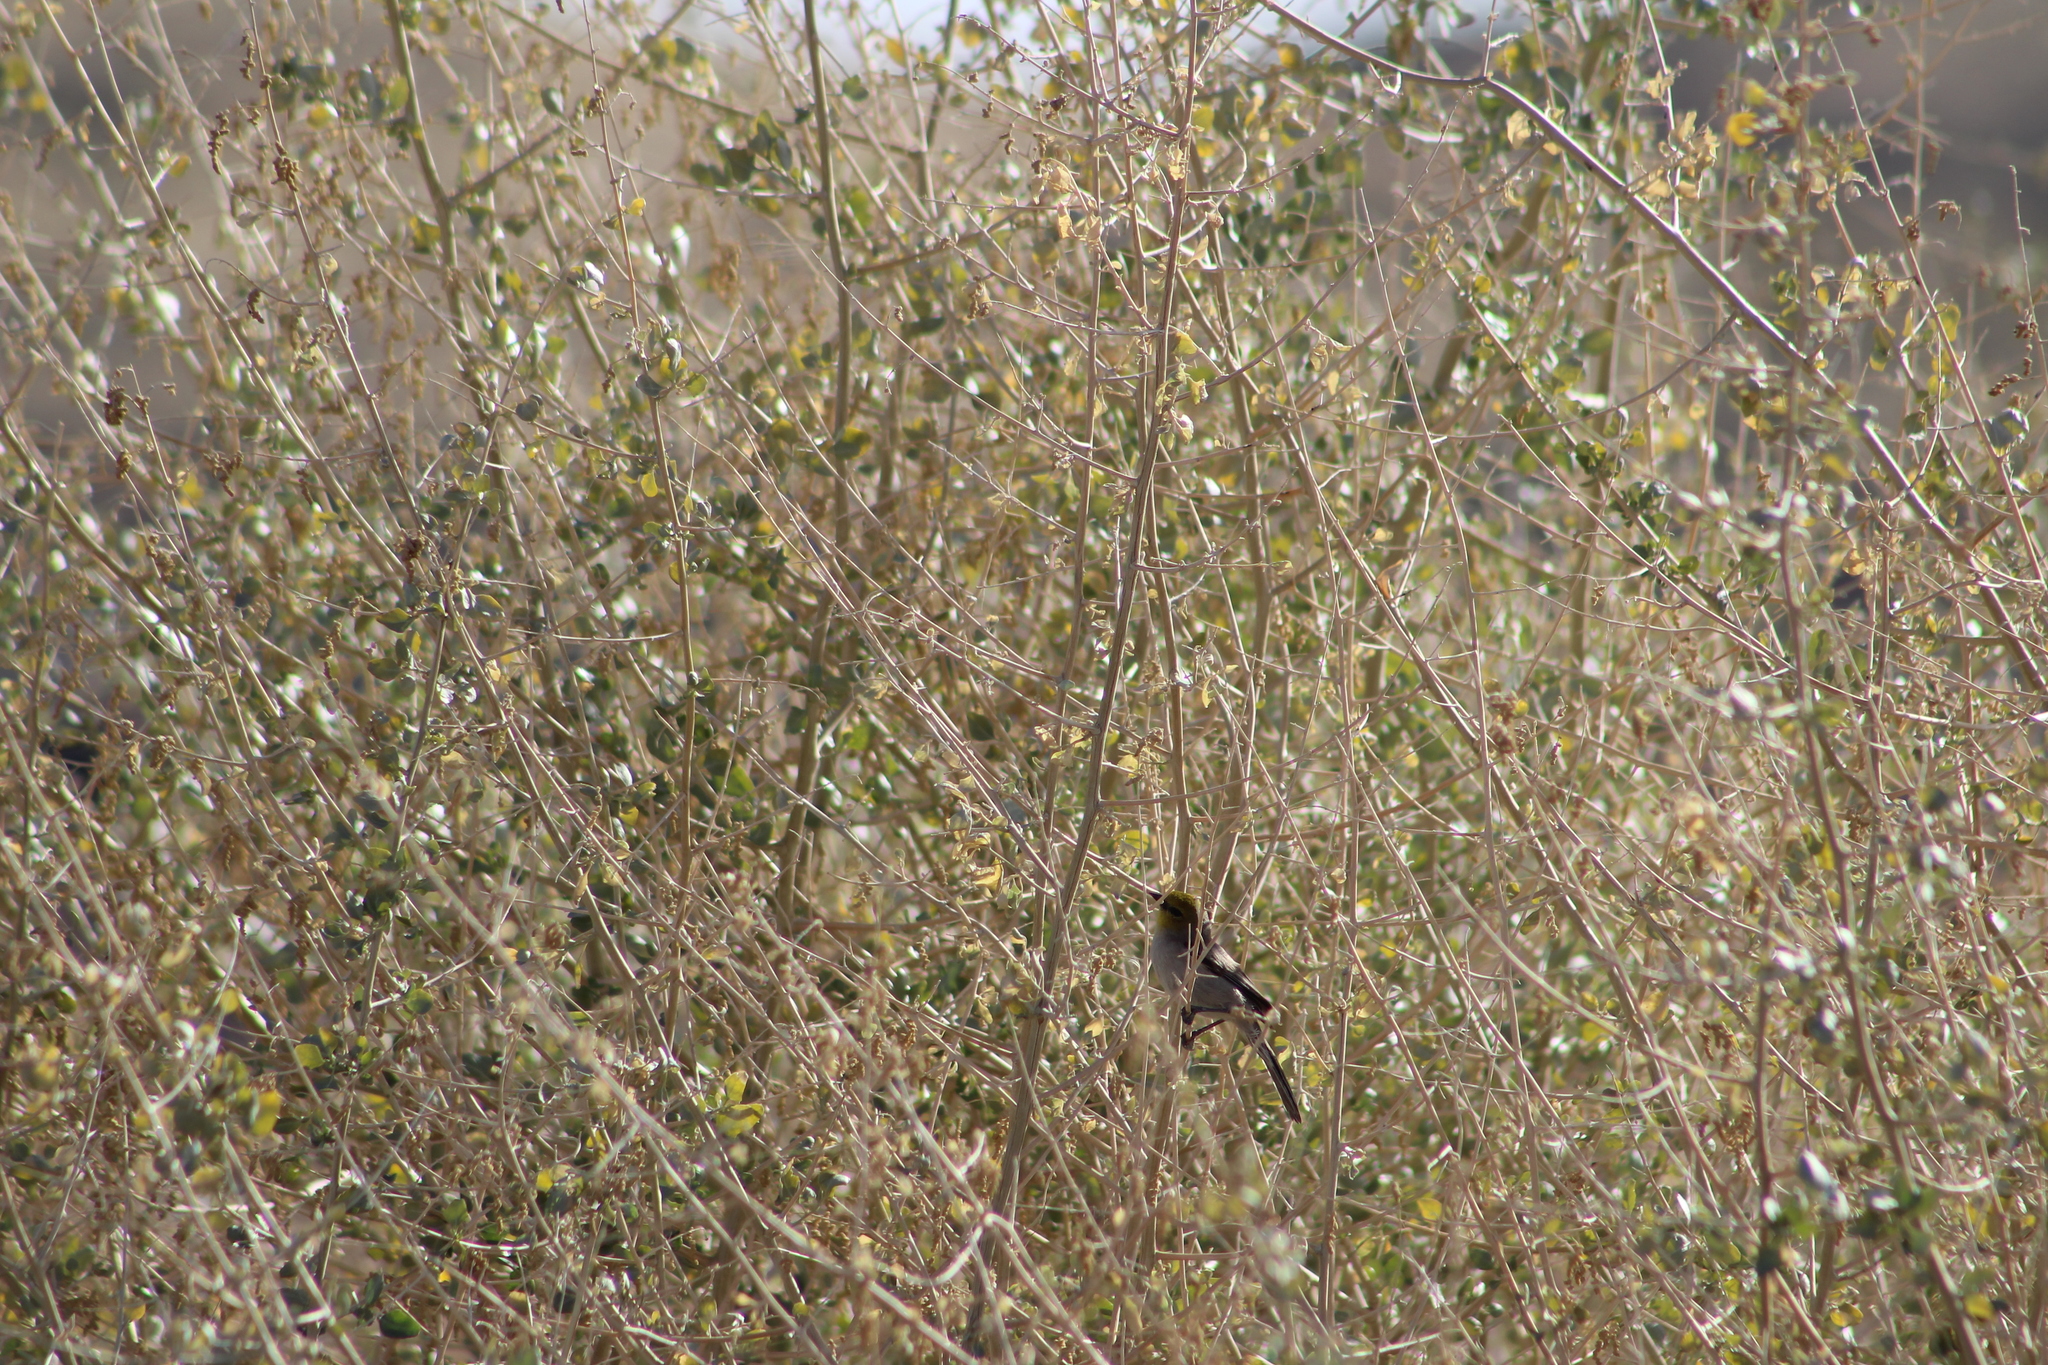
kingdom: Animalia
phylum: Chordata
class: Aves
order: Passeriformes
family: Remizidae
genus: Auriparus
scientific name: Auriparus flaviceps
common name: Verdin
